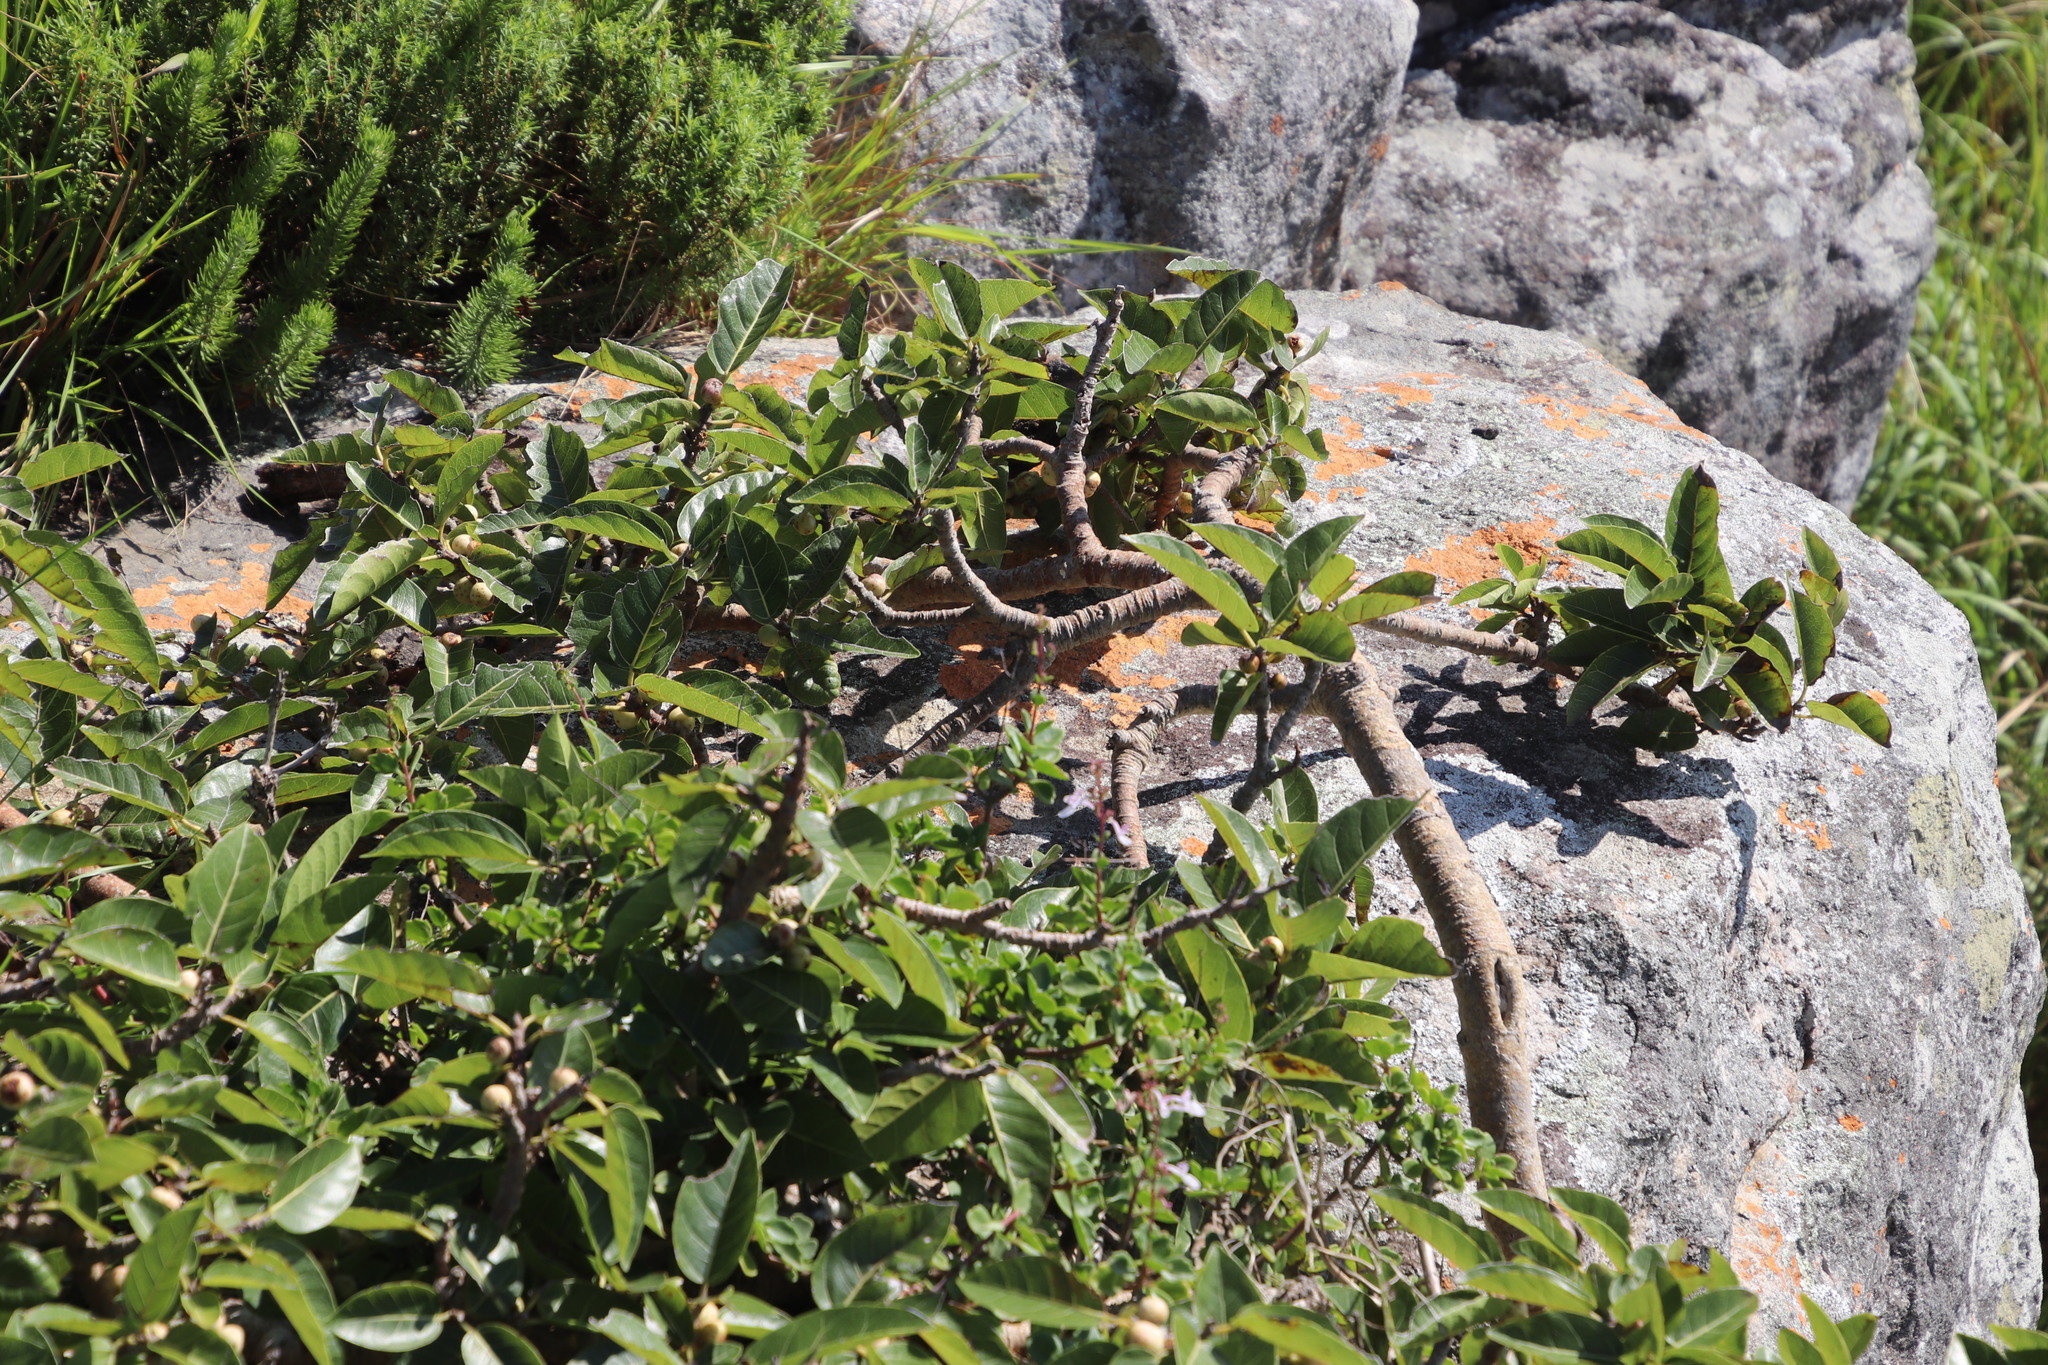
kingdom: Plantae
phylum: Tracheophyta
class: Magnoliopsida
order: Rosales
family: Moraceae
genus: Ficus
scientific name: Ficus ingens
